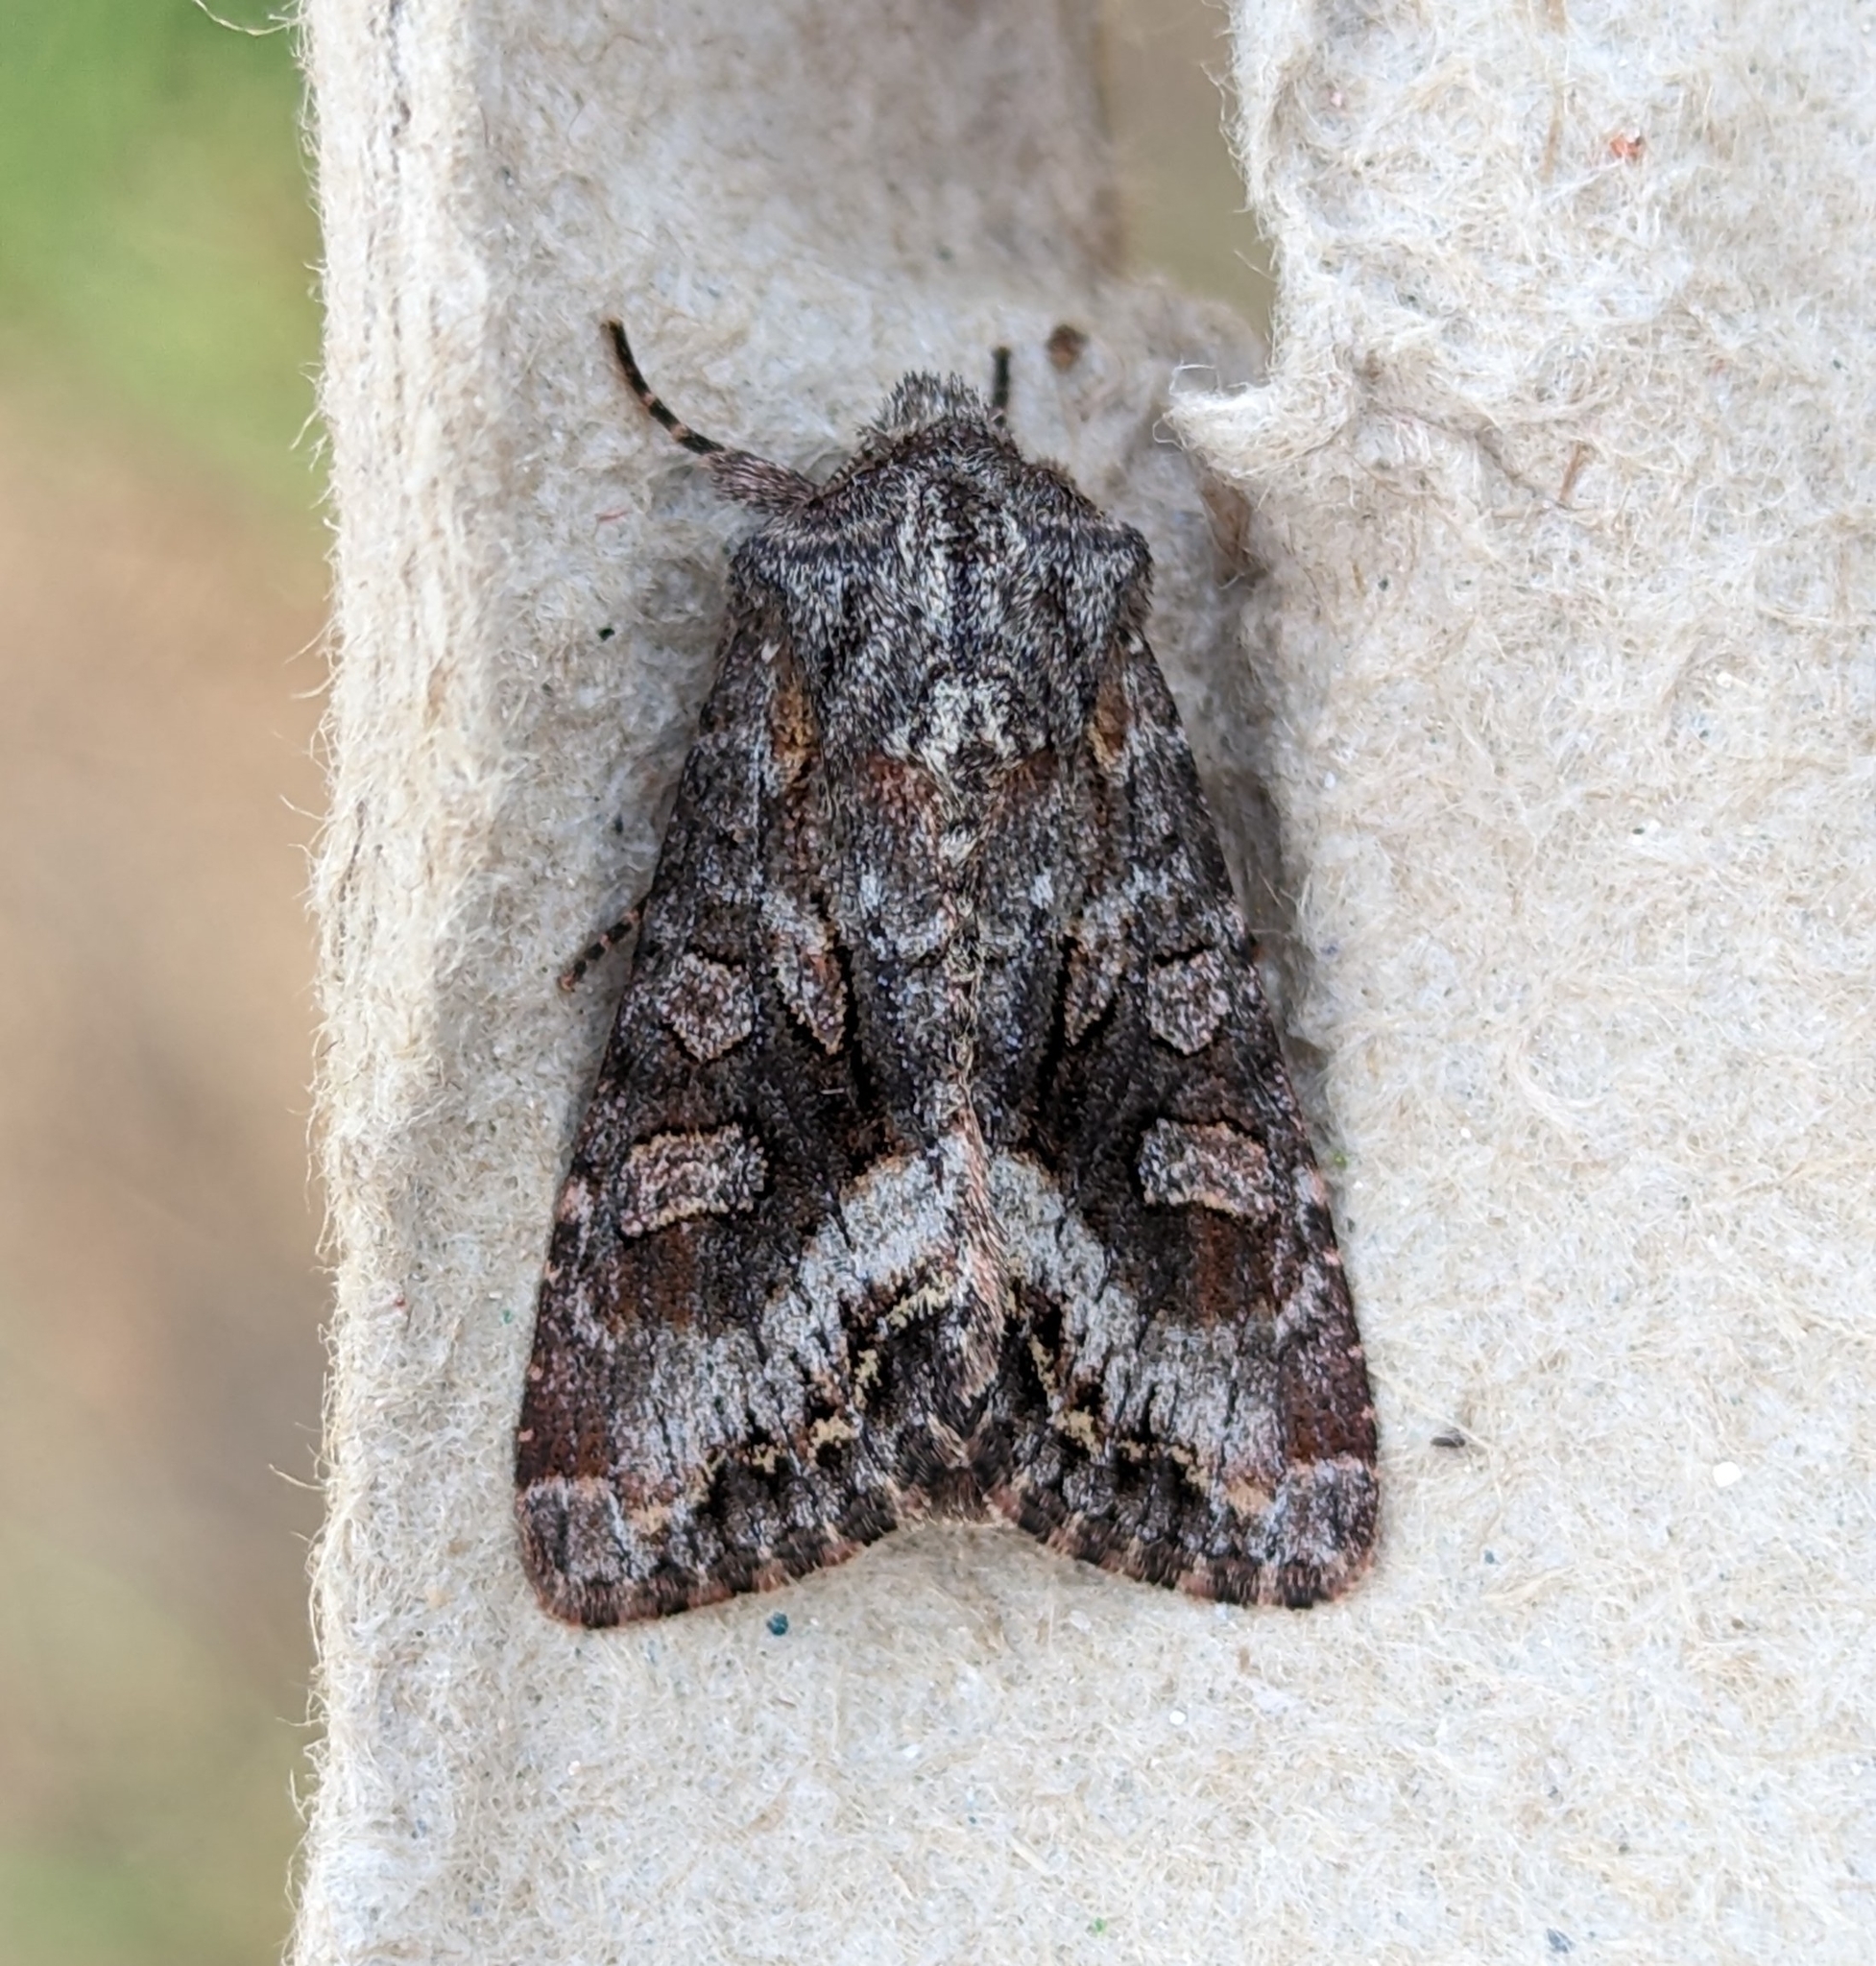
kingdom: Animalia
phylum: Arthropoda
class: Insecta
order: Lepidoptera
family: Noctuidae
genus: Papestra
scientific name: Papestra quadrata
